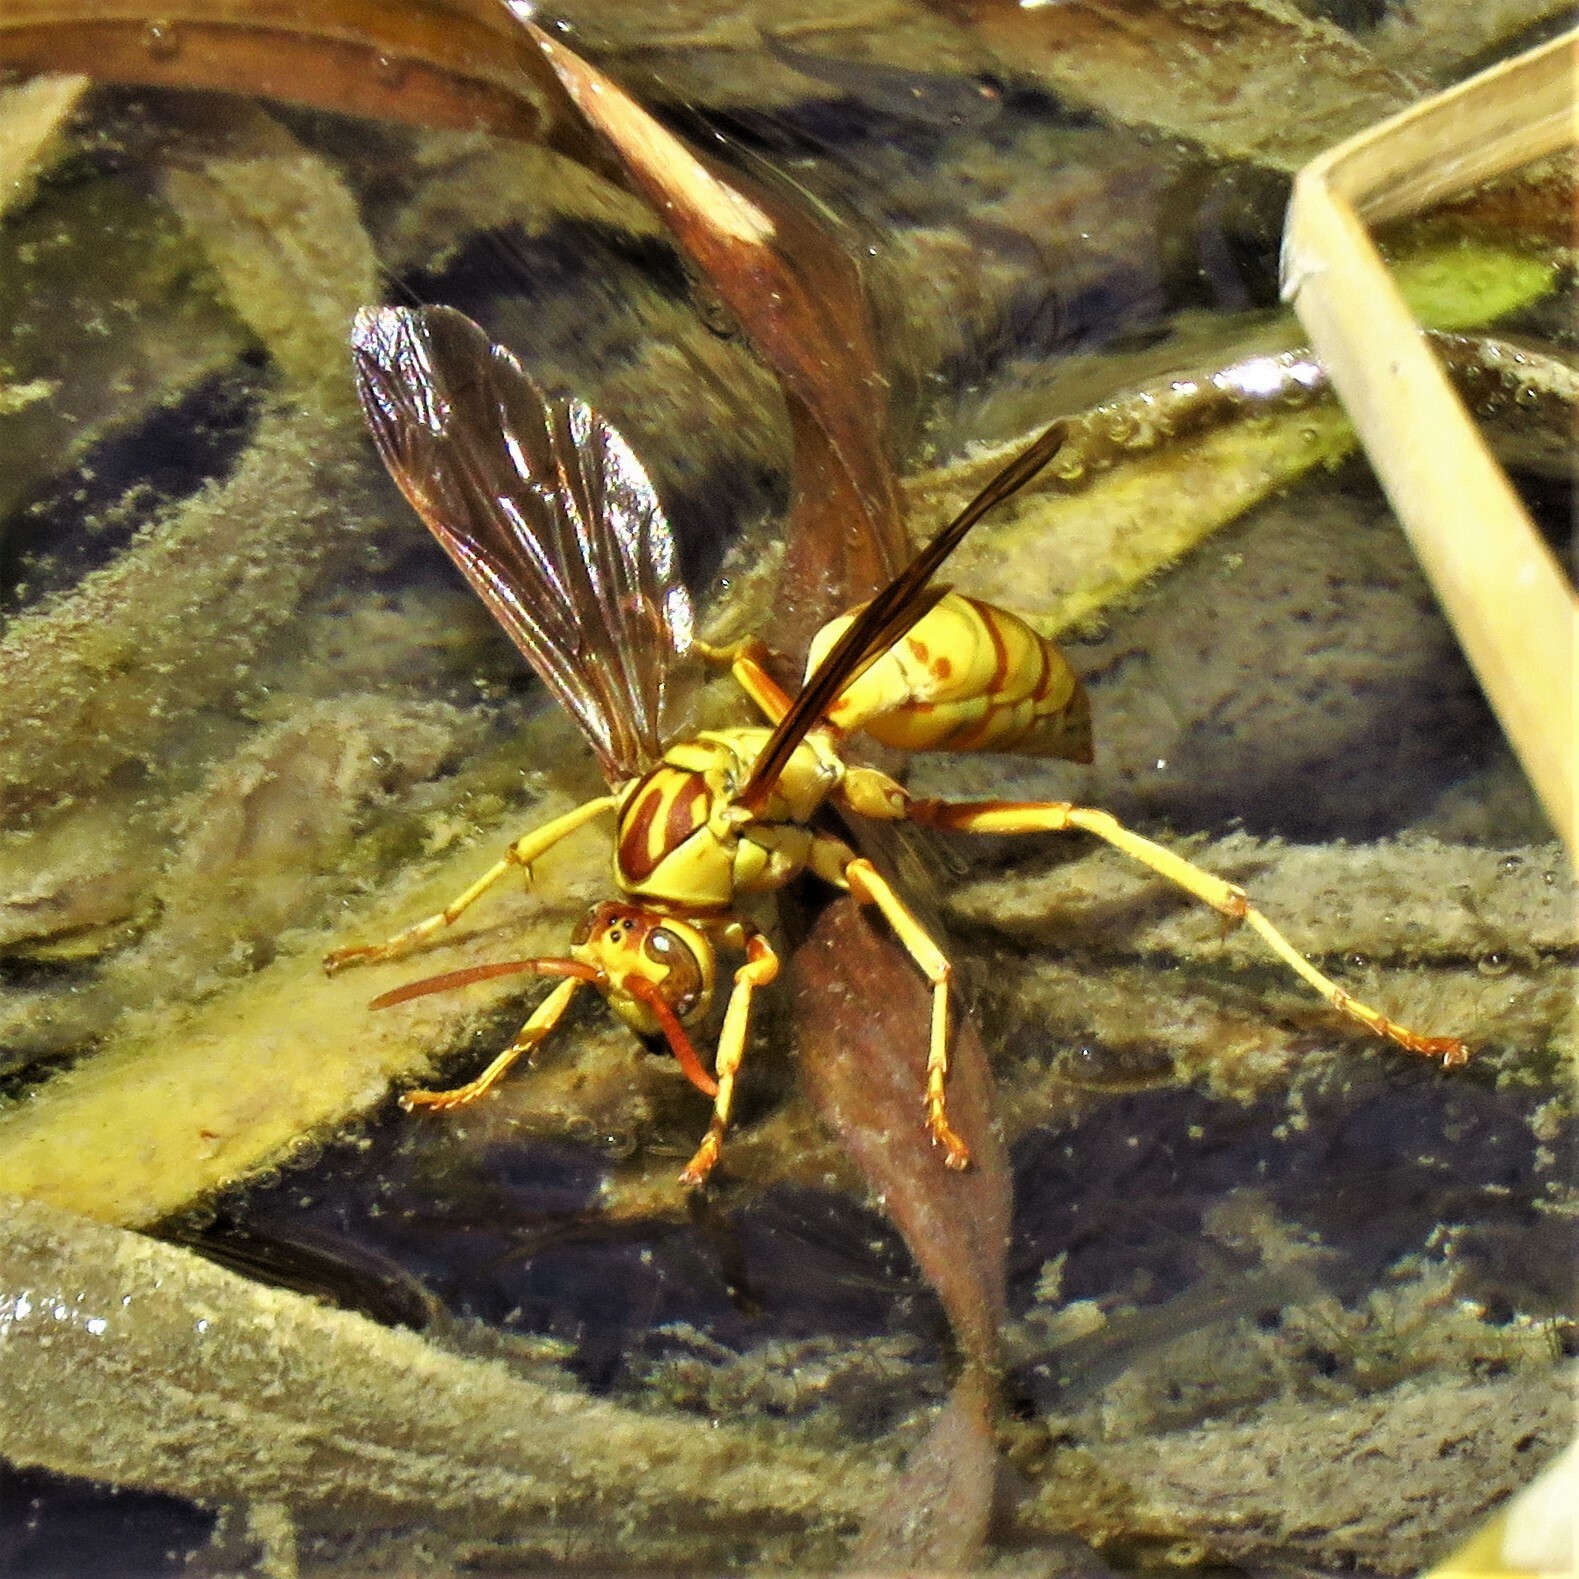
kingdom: Animalia
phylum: Arthropoda
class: Insecta
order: Hymenoptera
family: Eumenidae
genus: Polistes
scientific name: Polistes aurifer
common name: Paper wasp
